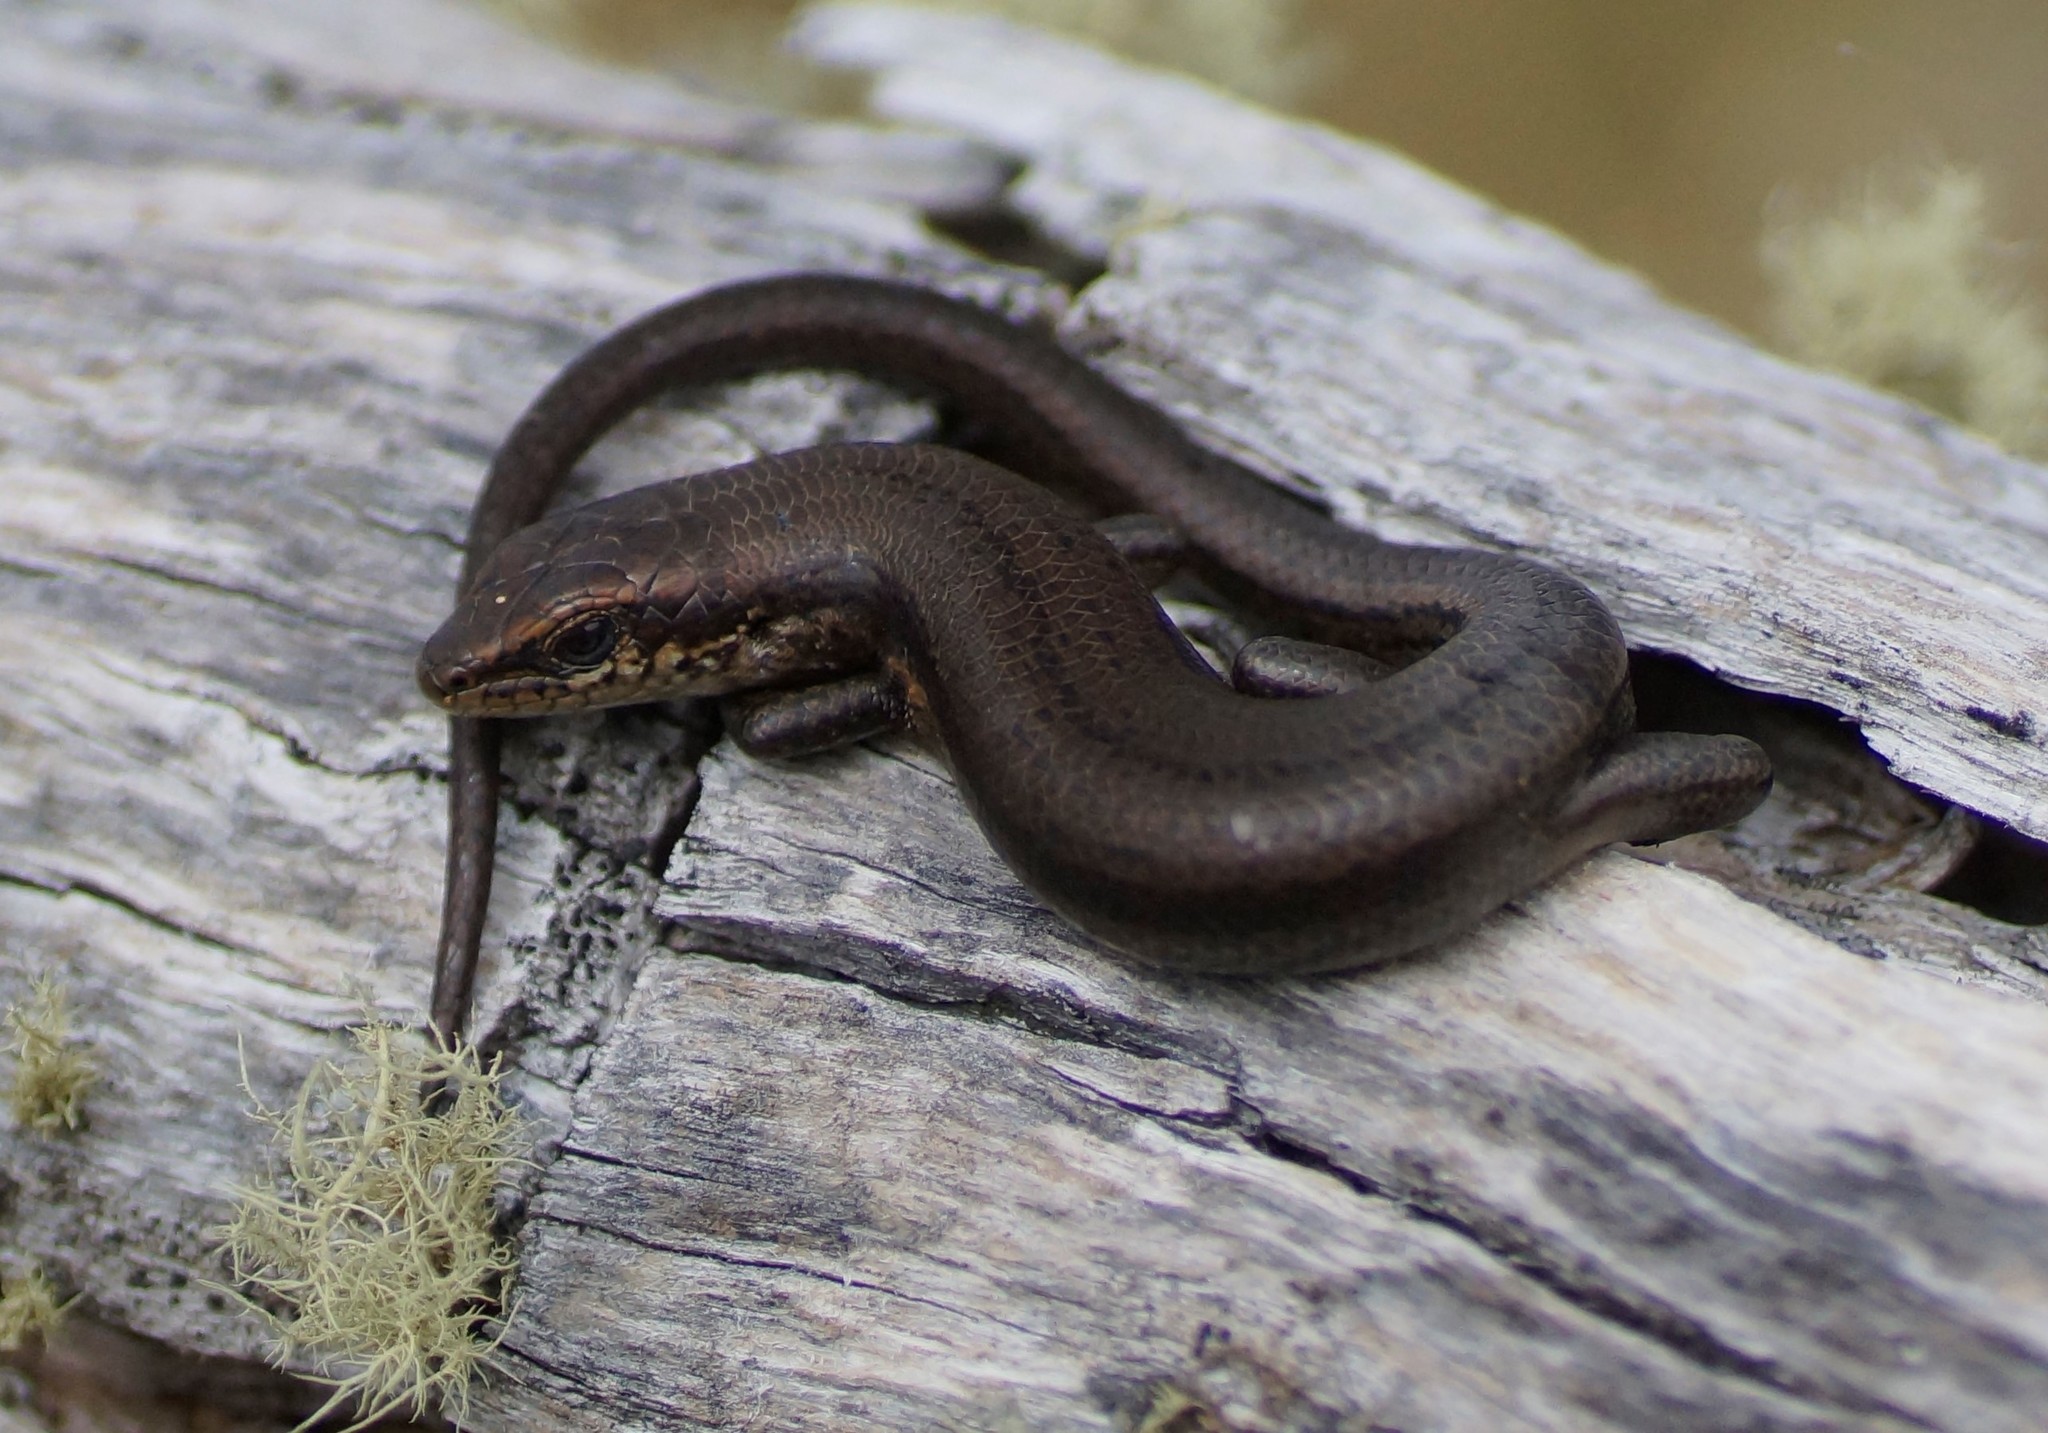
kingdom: Animalia
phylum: Chordata
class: Squamata
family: Scincidae
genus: Pseudemoia
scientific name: Pseudemoia entrecasteauxii
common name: Entrecasteaux's skink
